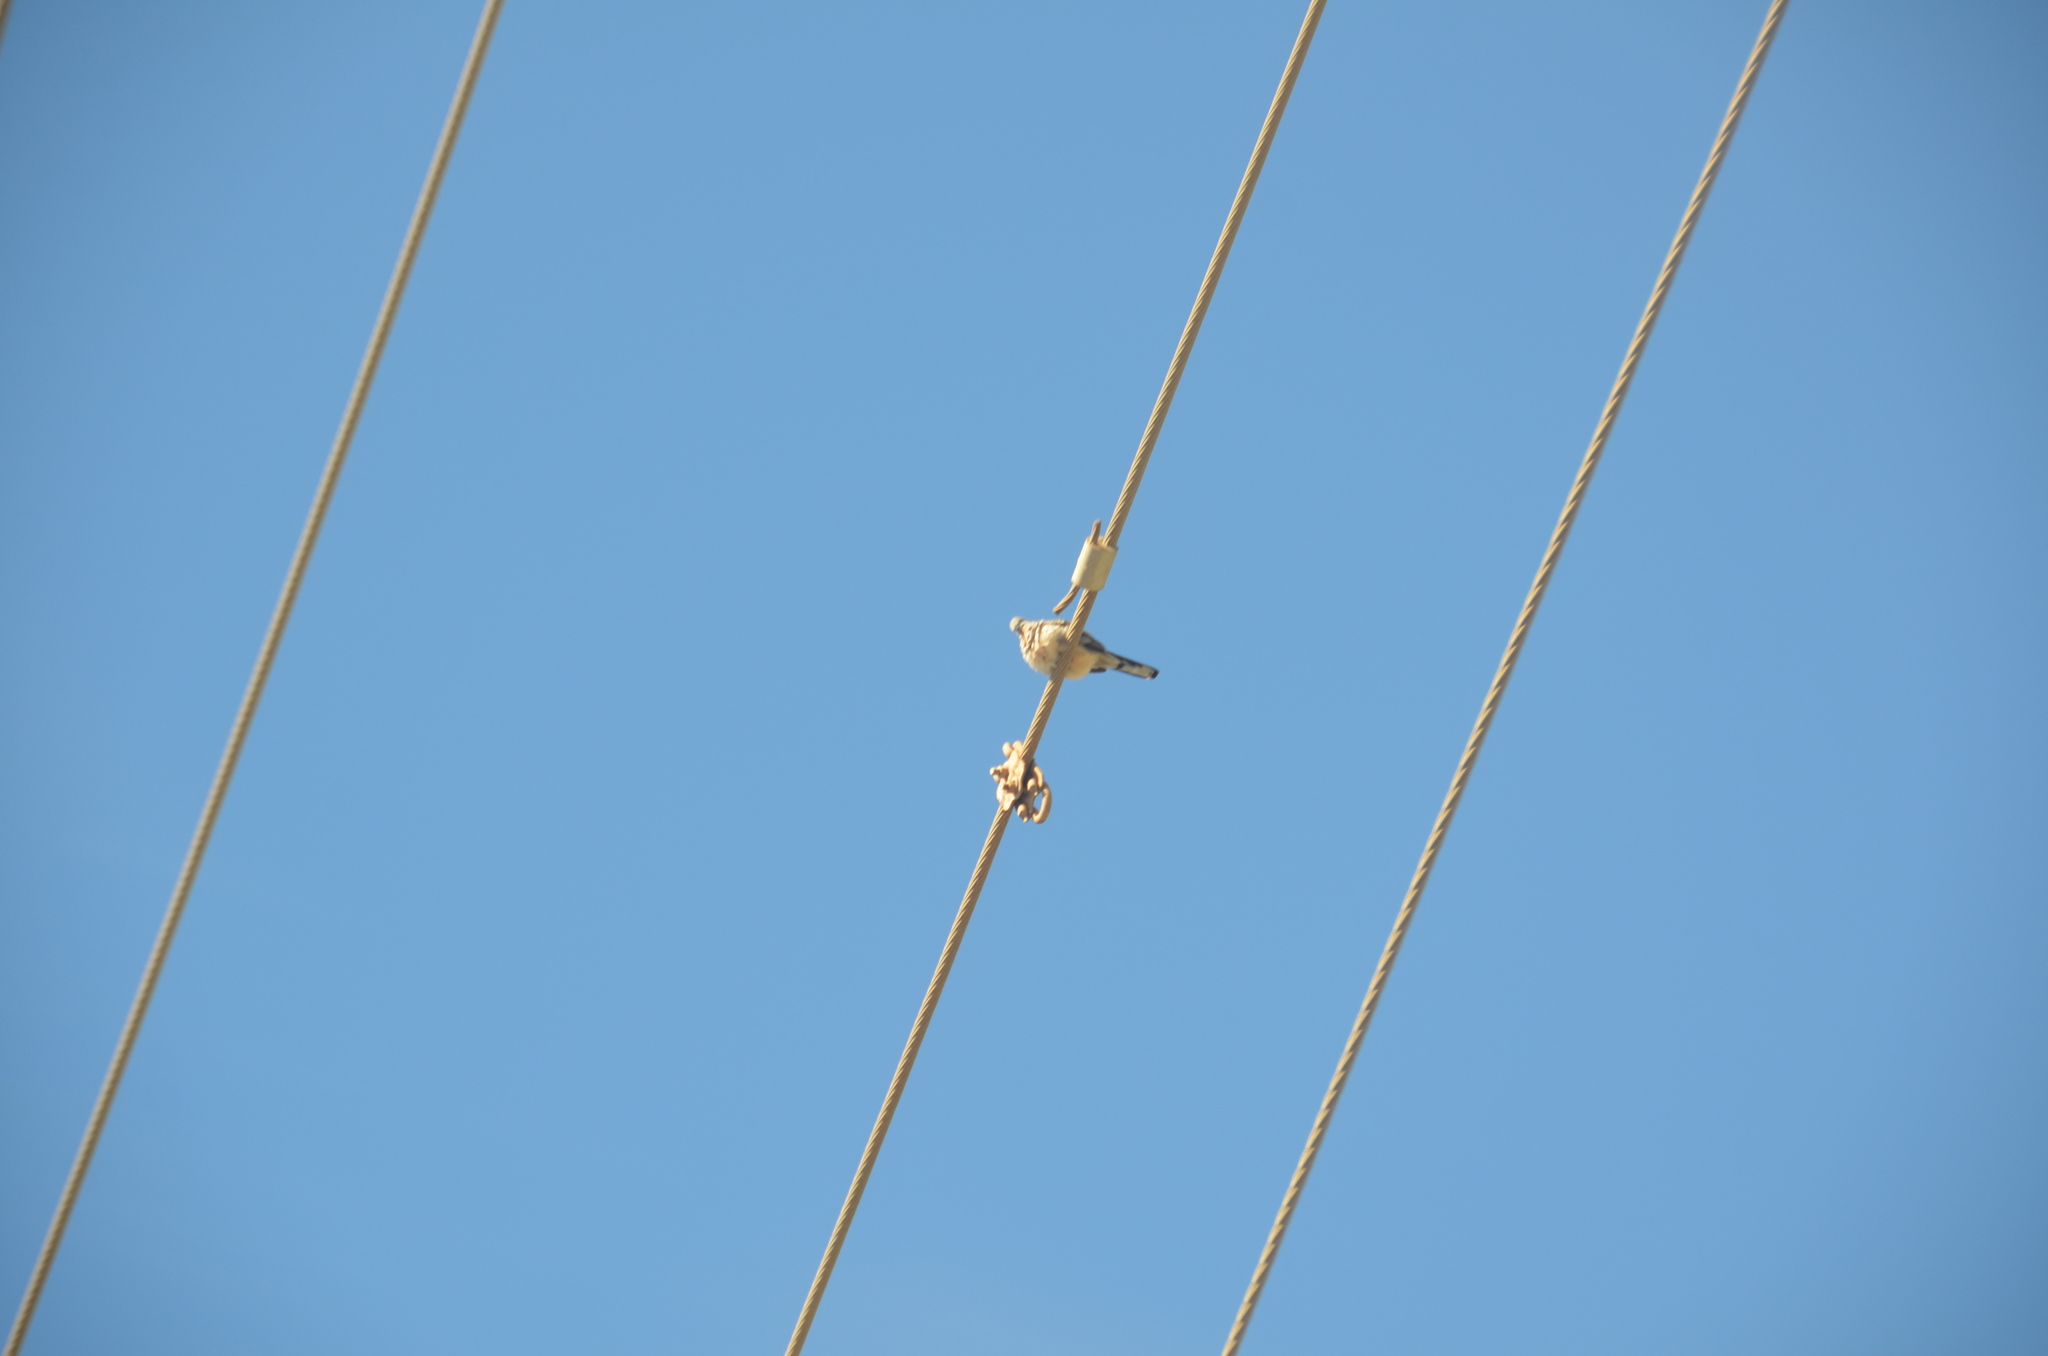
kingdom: Animalia
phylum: Chordata
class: Aves
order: Columbiformes
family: Columbidae
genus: Geopelia
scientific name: Geopelia striata
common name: Zebra dove
